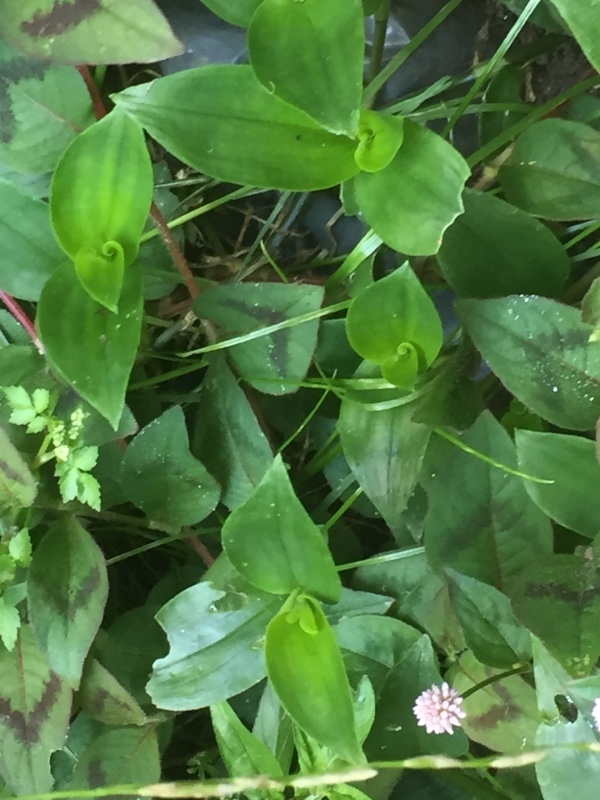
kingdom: Plantae
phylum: Tracheophyta
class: Magnoliopsida
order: Caryophyllales
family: Polygonaceae
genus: Persicaria
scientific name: Persicaria capitata
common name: Pinkhead smartweed
